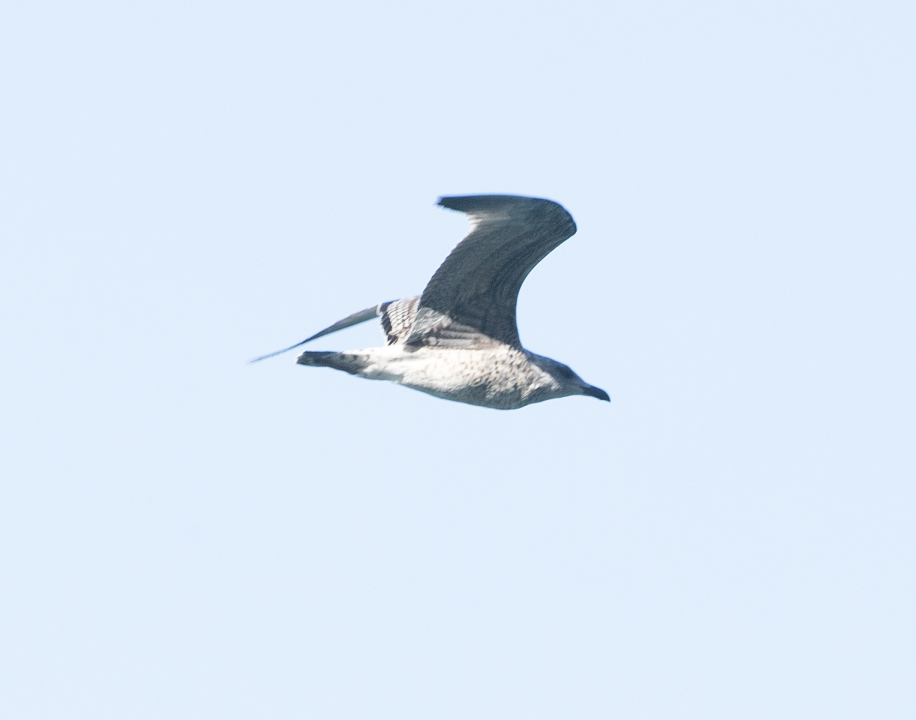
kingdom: Animalia
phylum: Chordata
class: Aves
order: Charadriiformes
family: Laridae
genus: Larus
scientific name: Larus michahellis
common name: Yellow-legged gull
